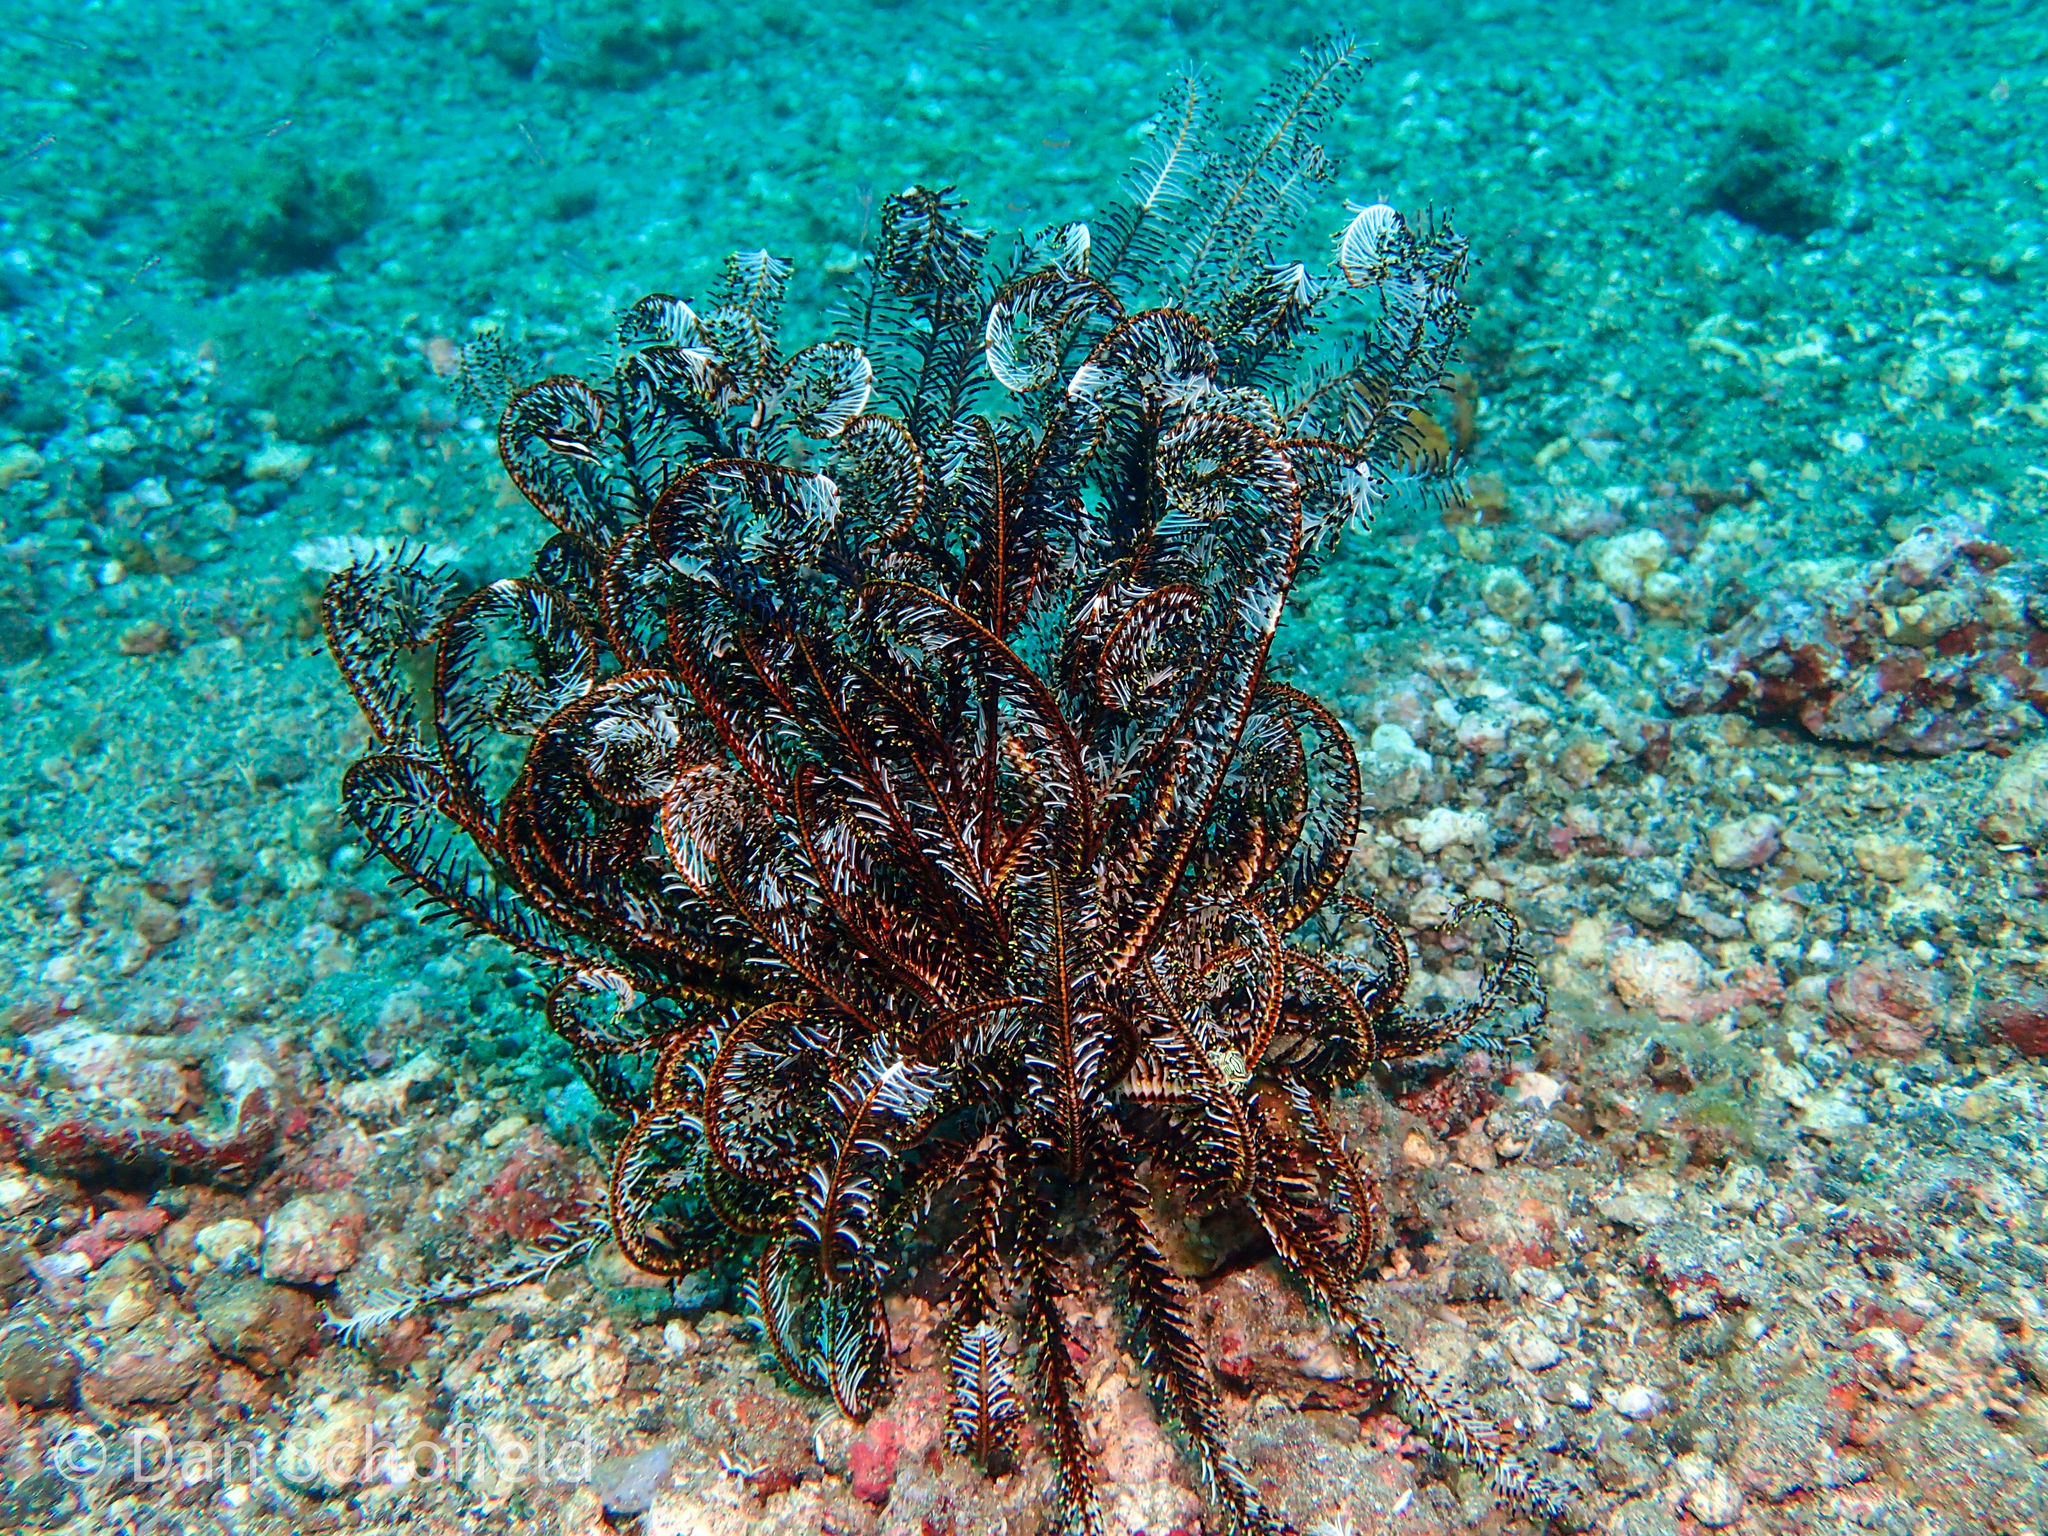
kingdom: Animalia
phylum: Echinodermata
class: Crinoidea
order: Comatulida
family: Comatulidae
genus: Comaster
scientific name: Comaster schlegelii
